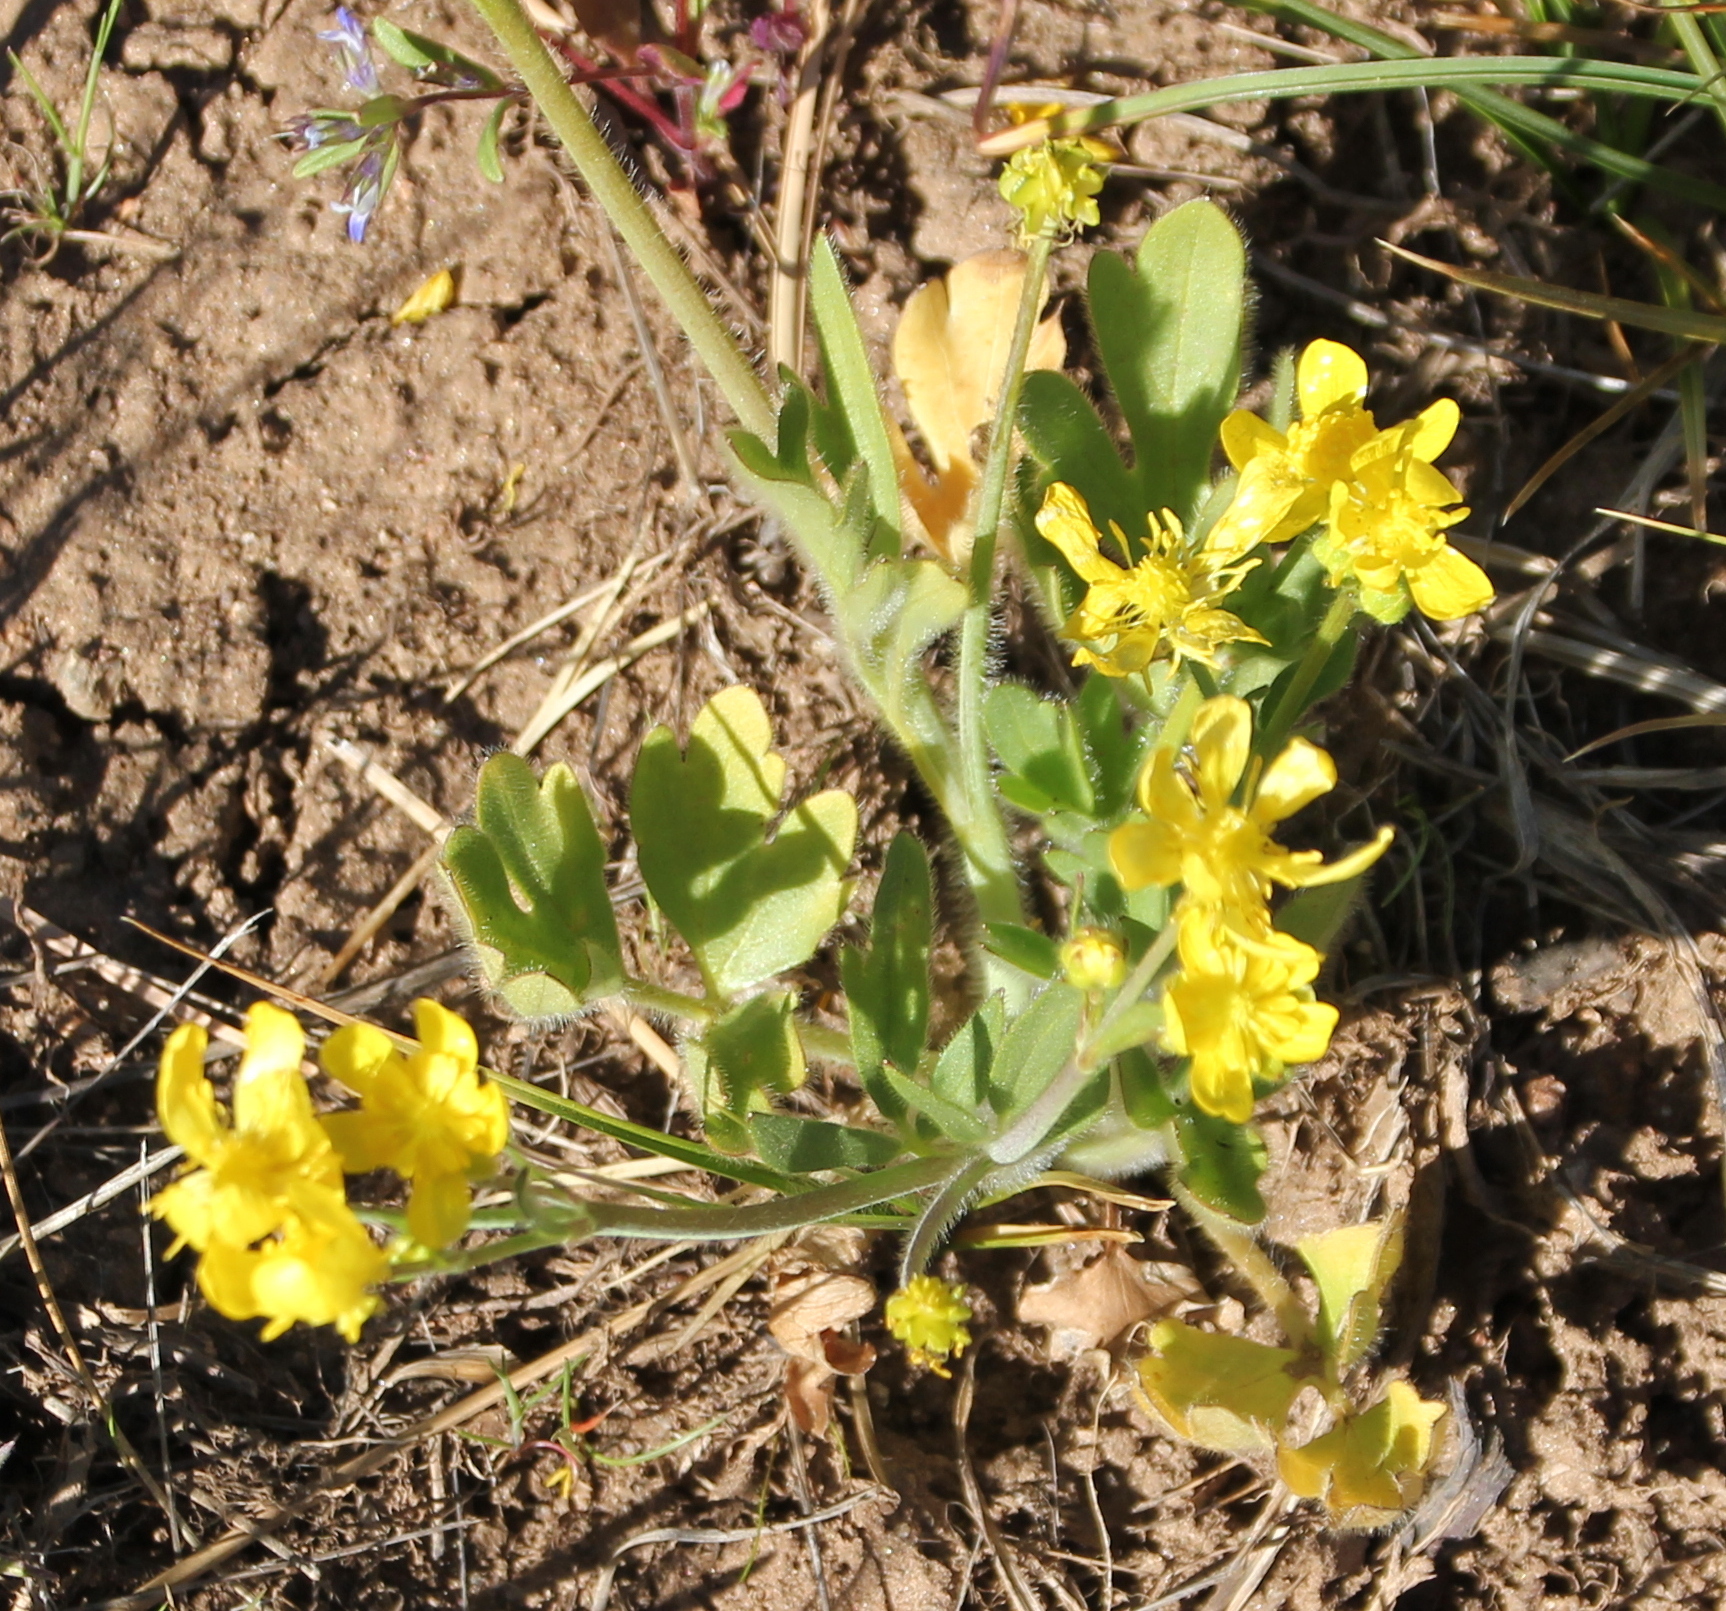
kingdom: Plantae
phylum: Tracheophyta
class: Magnoliopsida
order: Ranunculales
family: Ranunculaceae
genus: Ranunculus
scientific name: Ranunculus occidentalis
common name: Western buttercup
